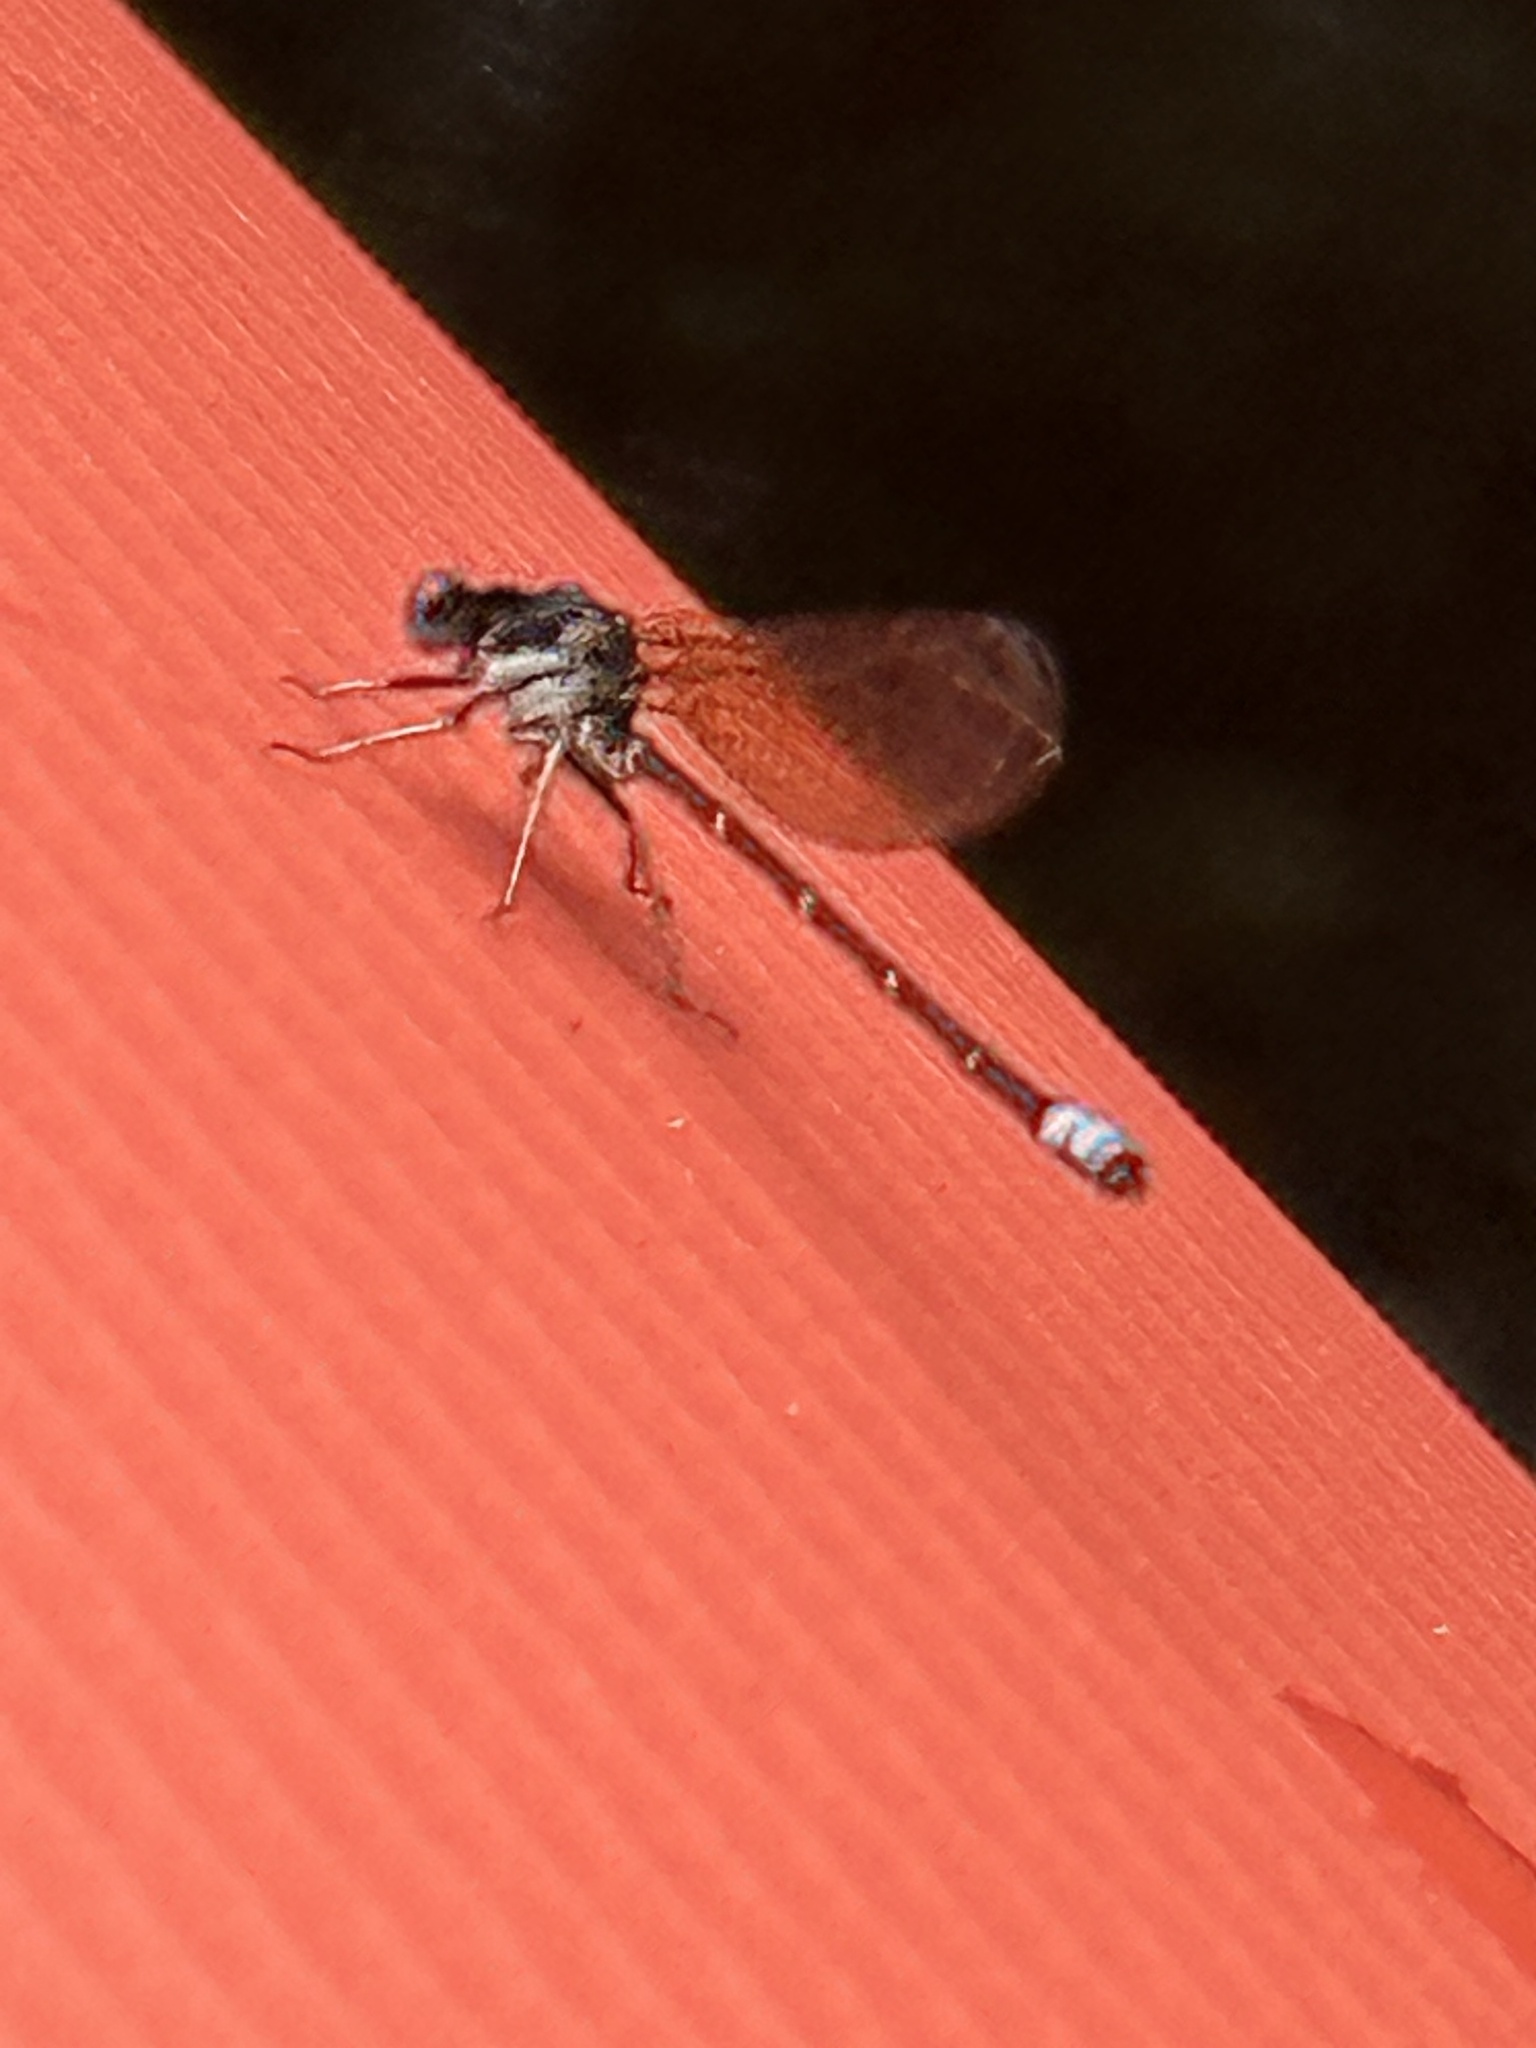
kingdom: Animalia
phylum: Arthropoda
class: Insecta
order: Odonata
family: Coenagrionidae
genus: Argia
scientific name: Argia sedula
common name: Blue-ringed dancer
